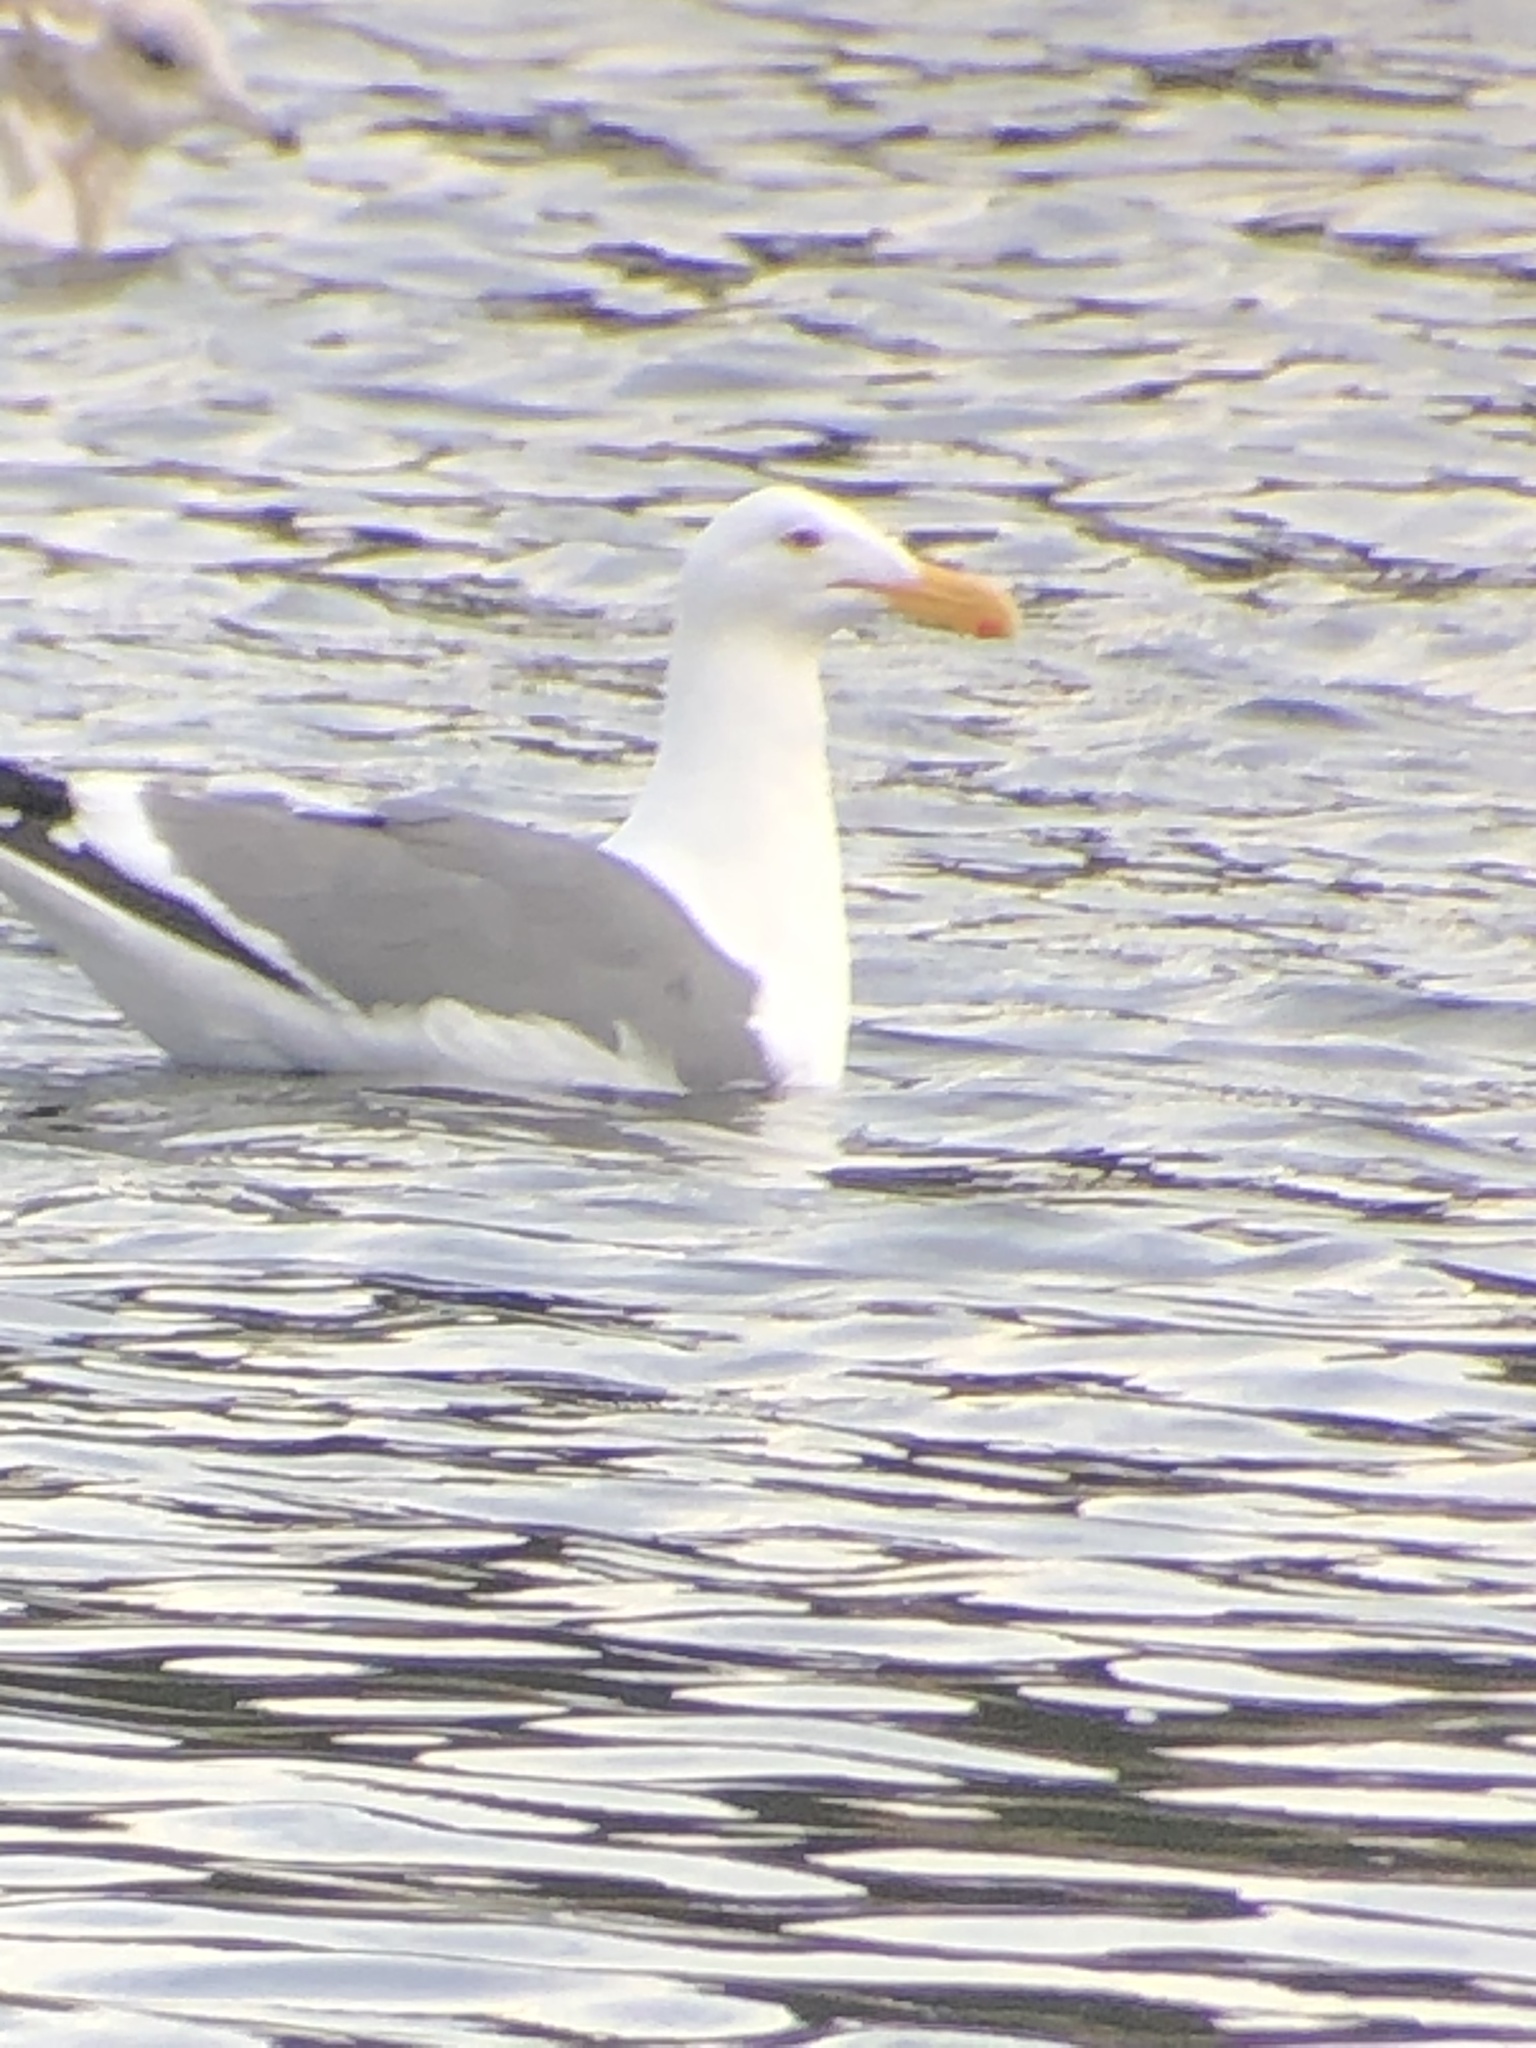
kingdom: Animalia
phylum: Chordata
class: Aves
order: Charadriiformes
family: Laridae
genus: Larus
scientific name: Larus occidentalis
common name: Western gull
